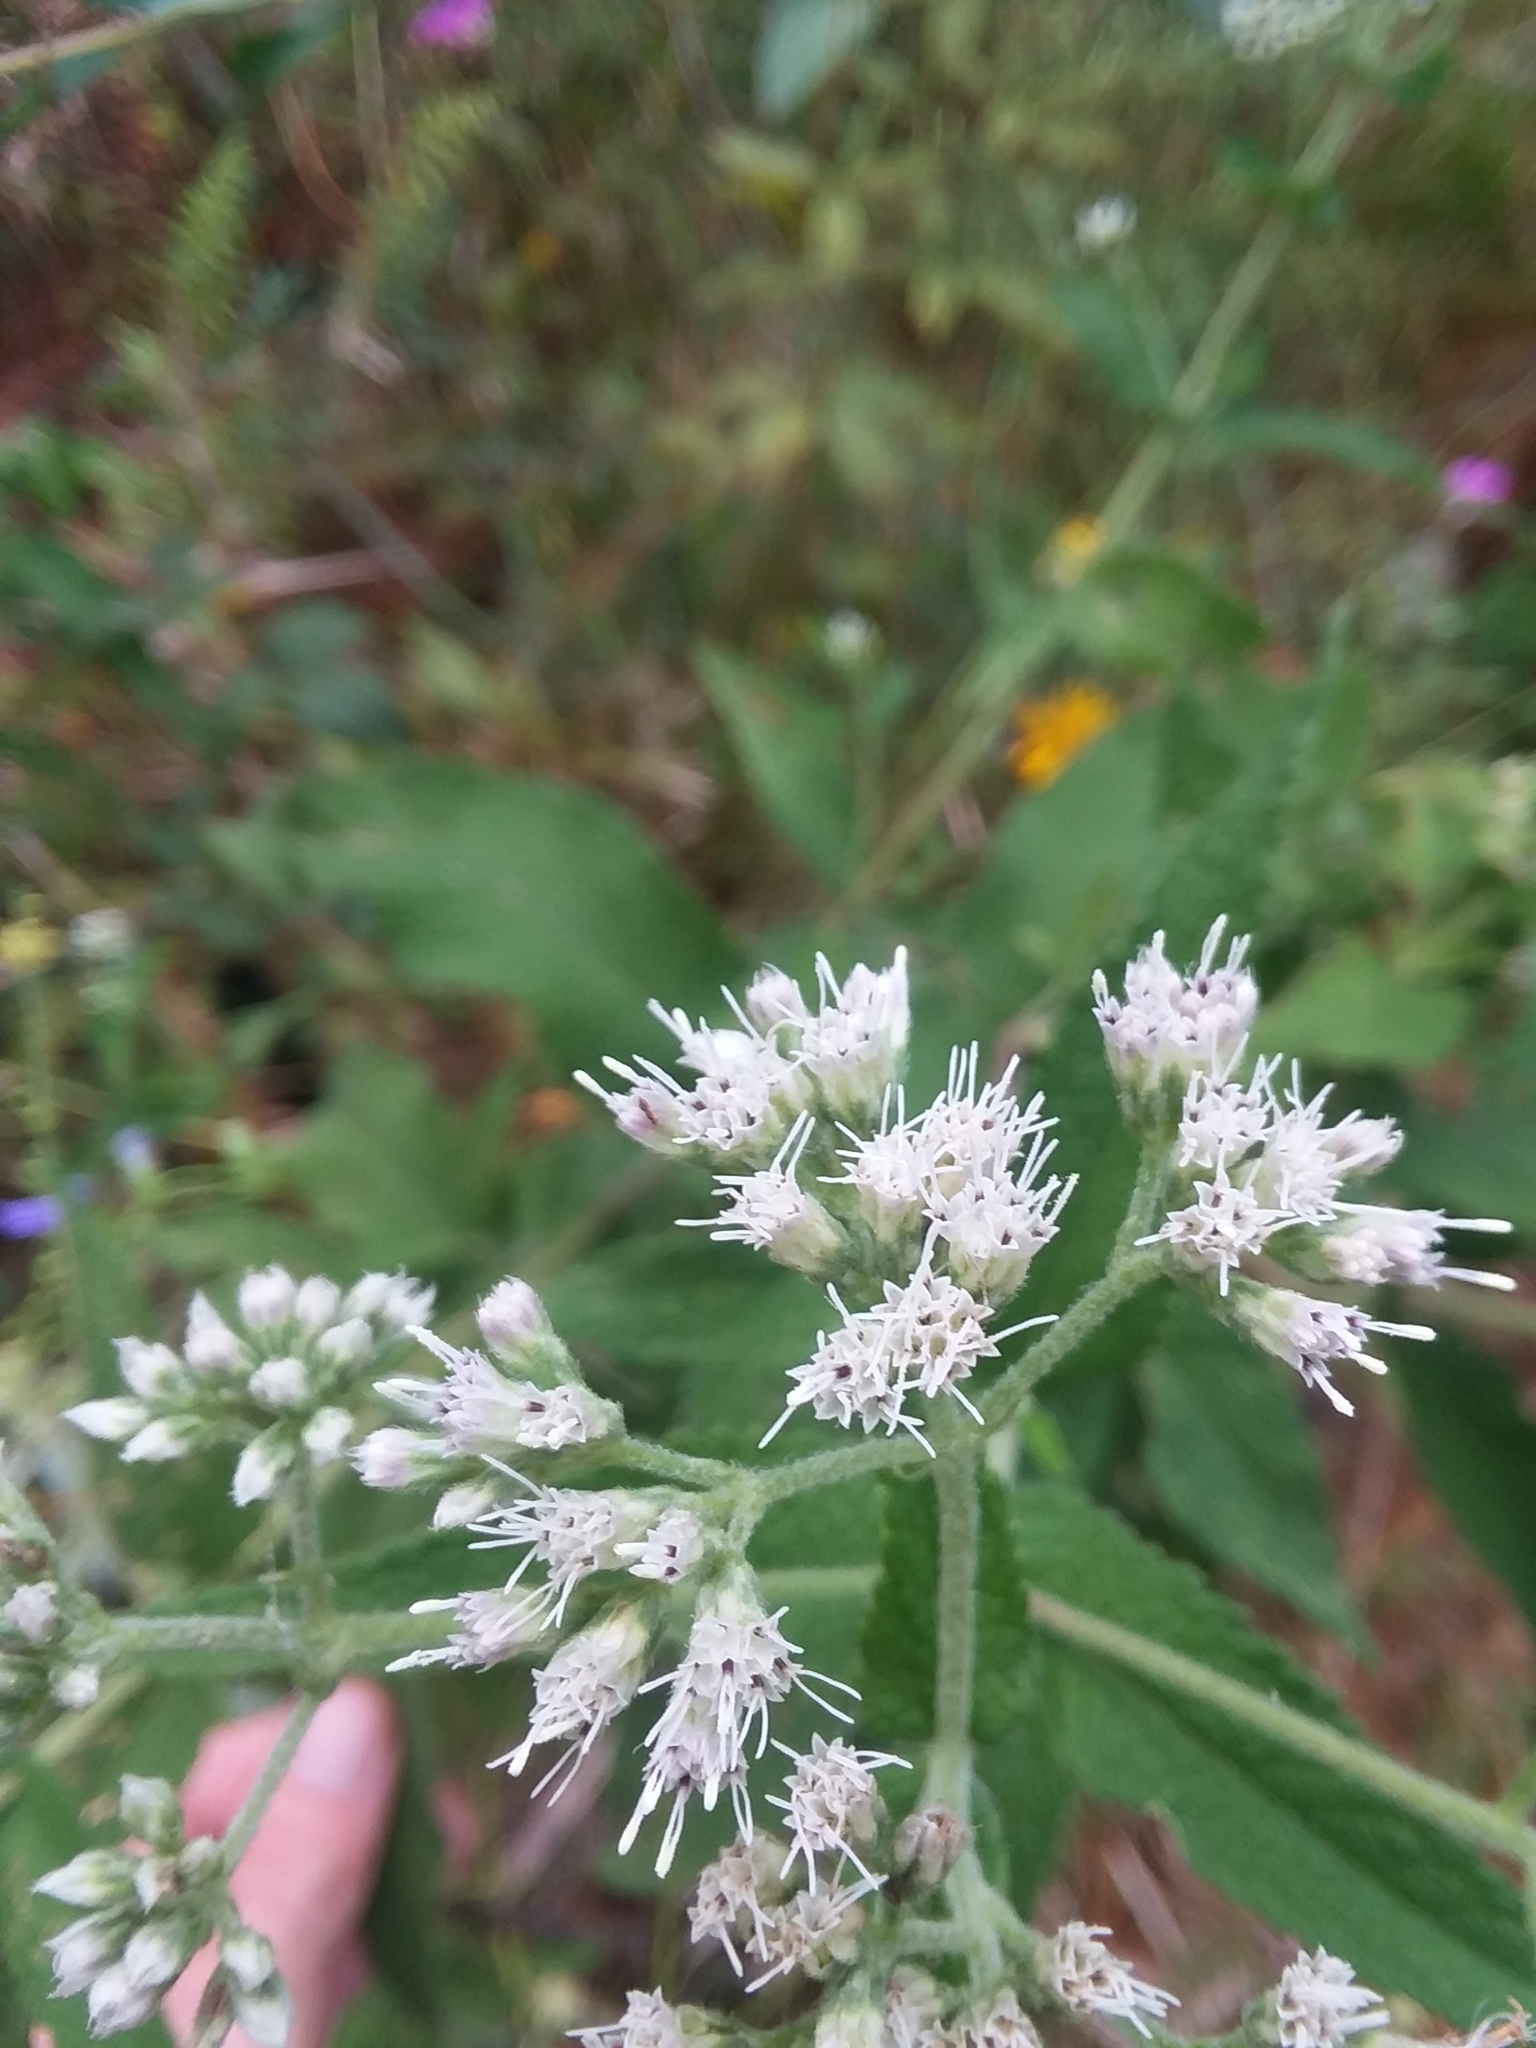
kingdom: Plantae
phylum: Tracheophyta
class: Magnoliopsida
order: Asterales
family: Asteraceae
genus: Eupatorium
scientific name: Eupatorium perfoliatum
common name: Boneset
